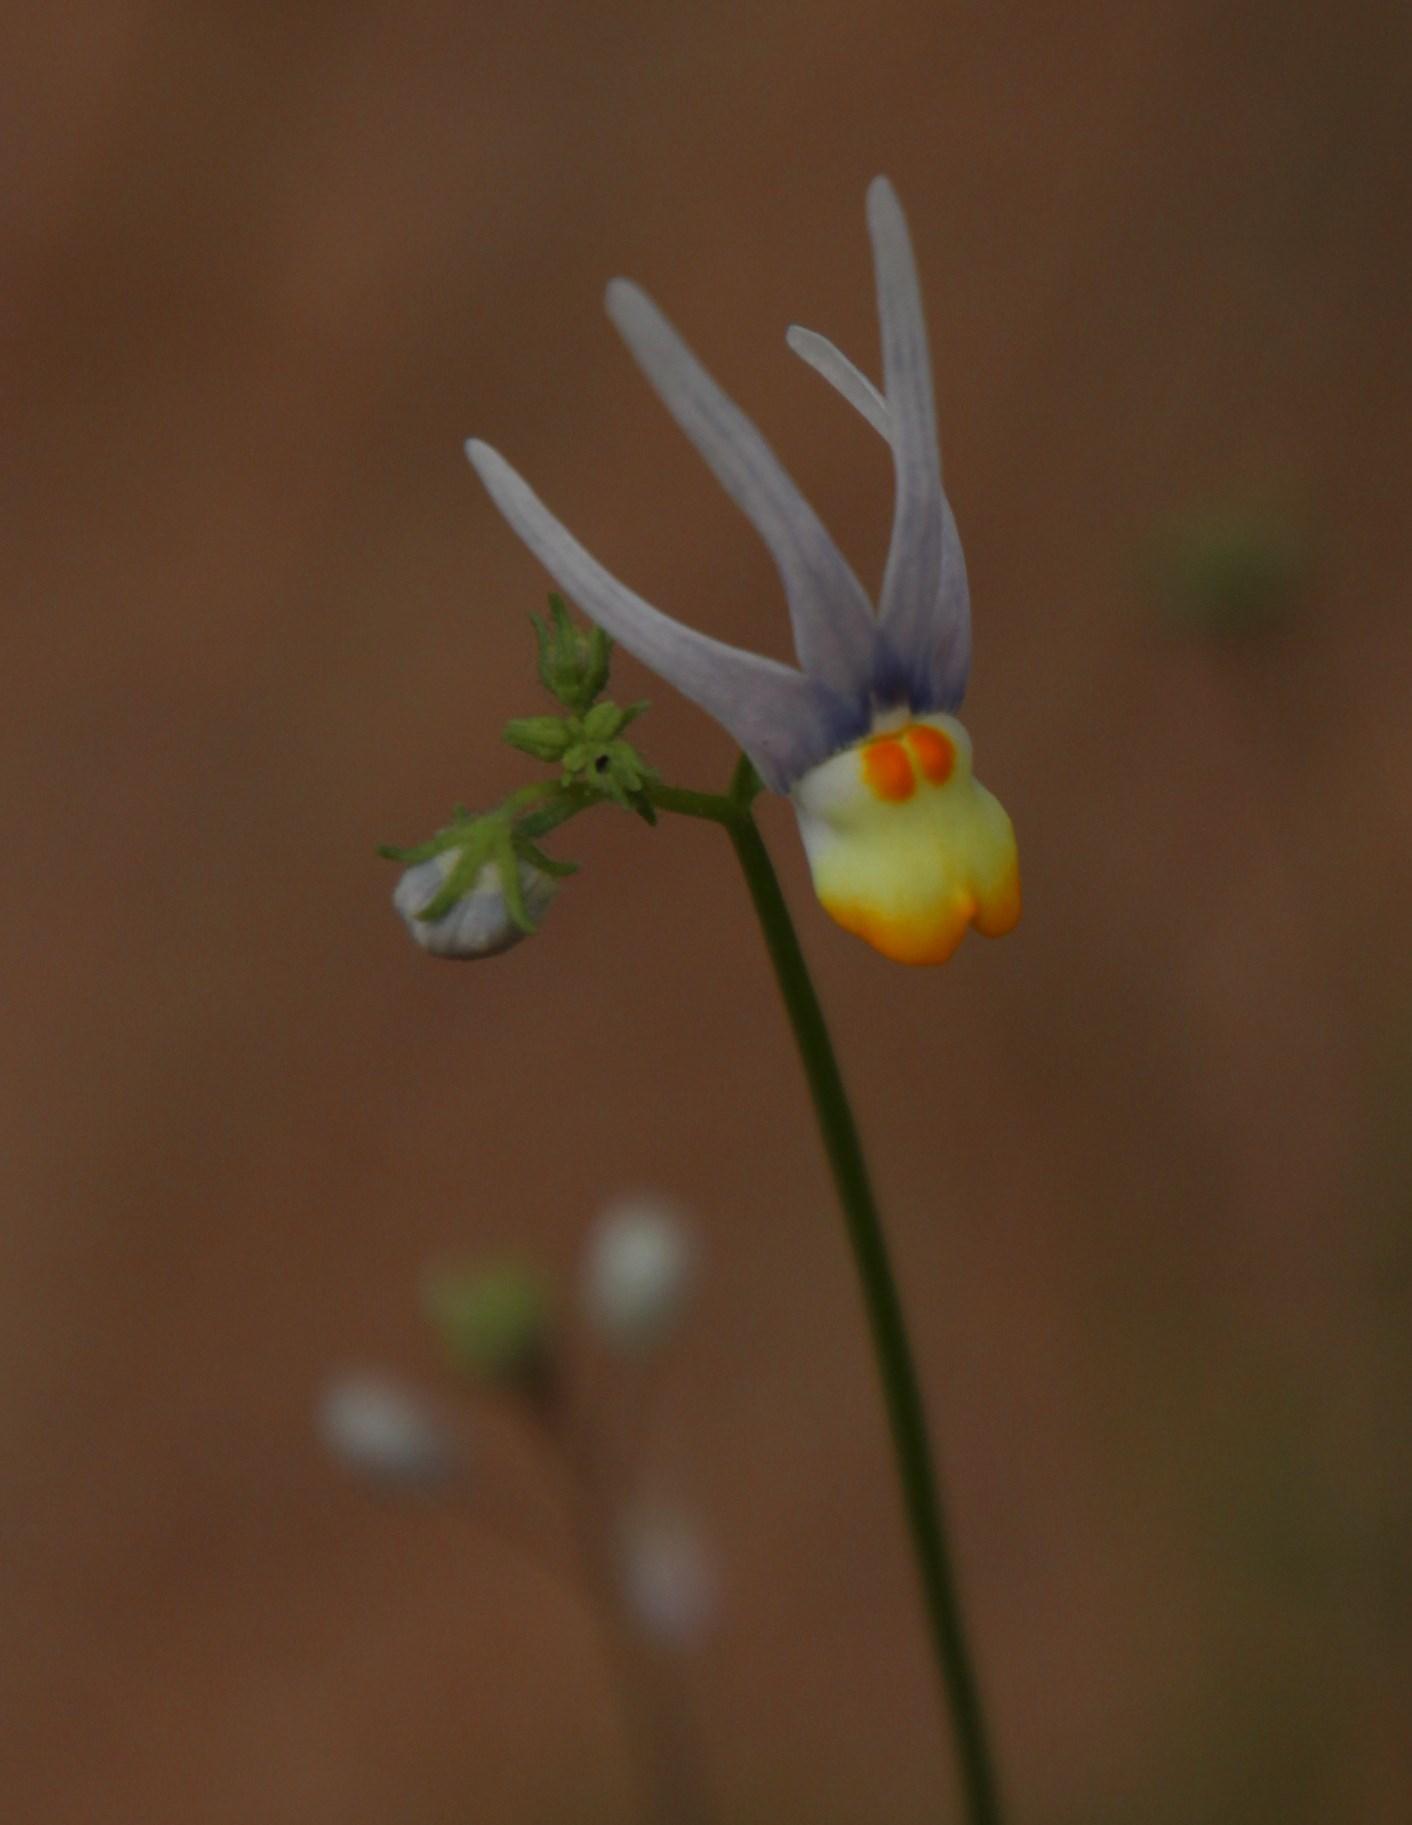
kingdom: Plantae
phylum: Tracheophyta
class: Magnoliopsida
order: Lamiales
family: Scrophulariaceae
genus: Nemesia
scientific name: Nemesia cheiranthus
